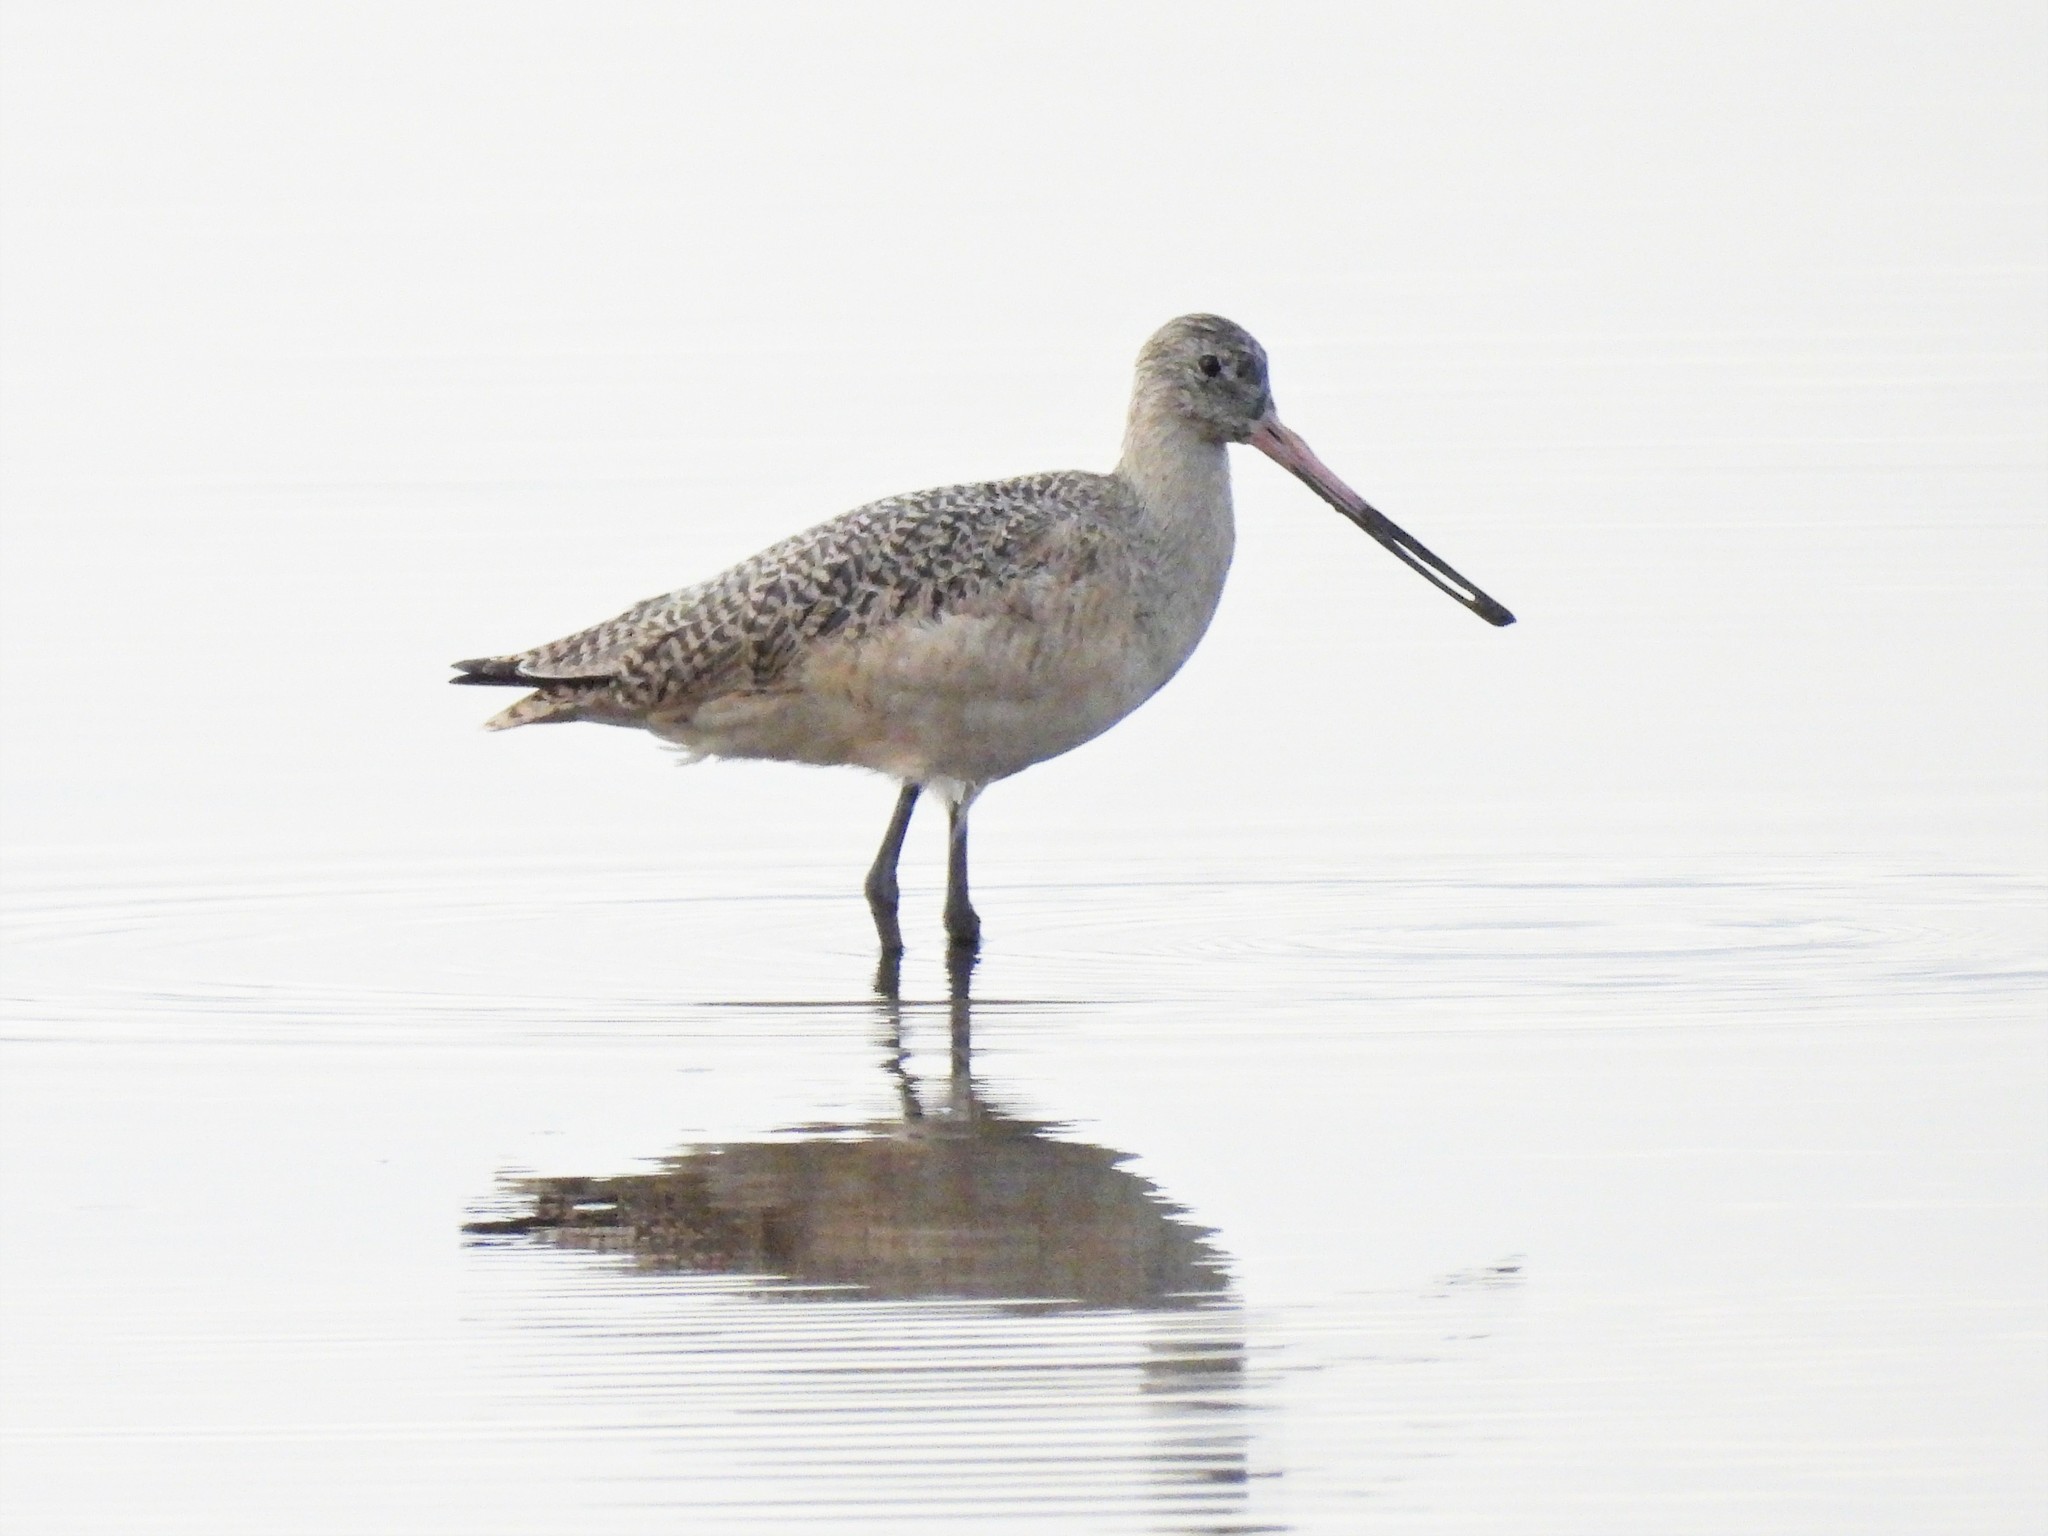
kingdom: Animalia
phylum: Chordata
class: Aves
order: Charadriiformes
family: Scolopacidae
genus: Limosa
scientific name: Limosa fedoa
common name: Marbled godwit
